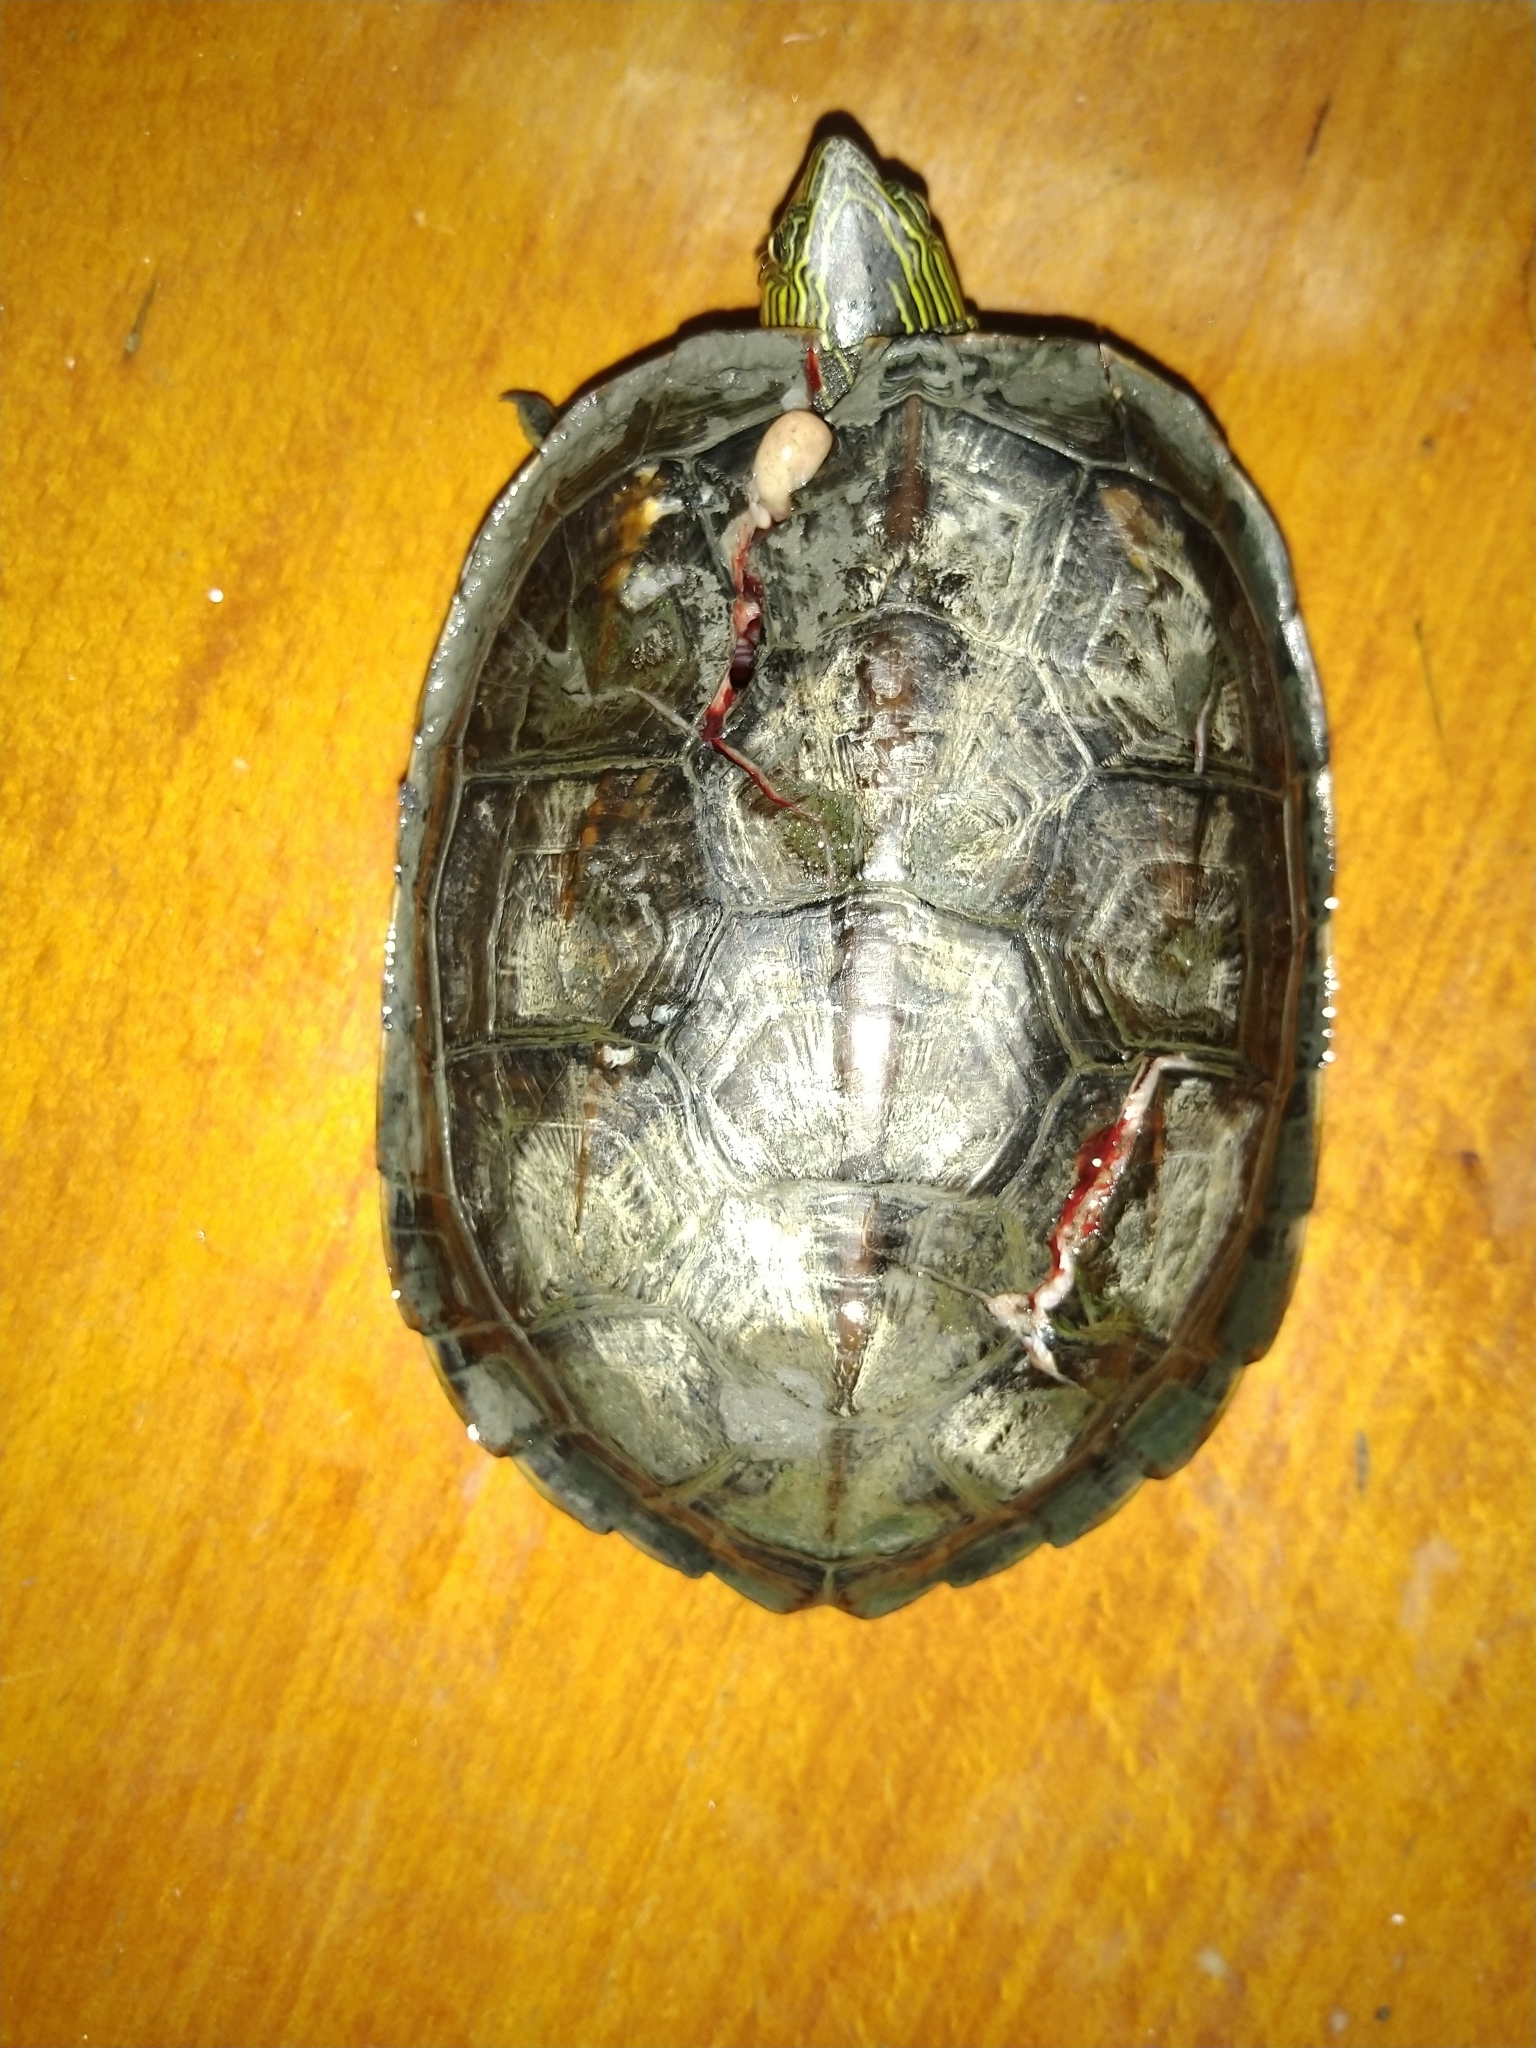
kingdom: Animalia
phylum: Chordata
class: Testudines
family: Geoemydidae
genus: Mauremys
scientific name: Mauremys sinensis
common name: Chinese stripe-necked turtle
